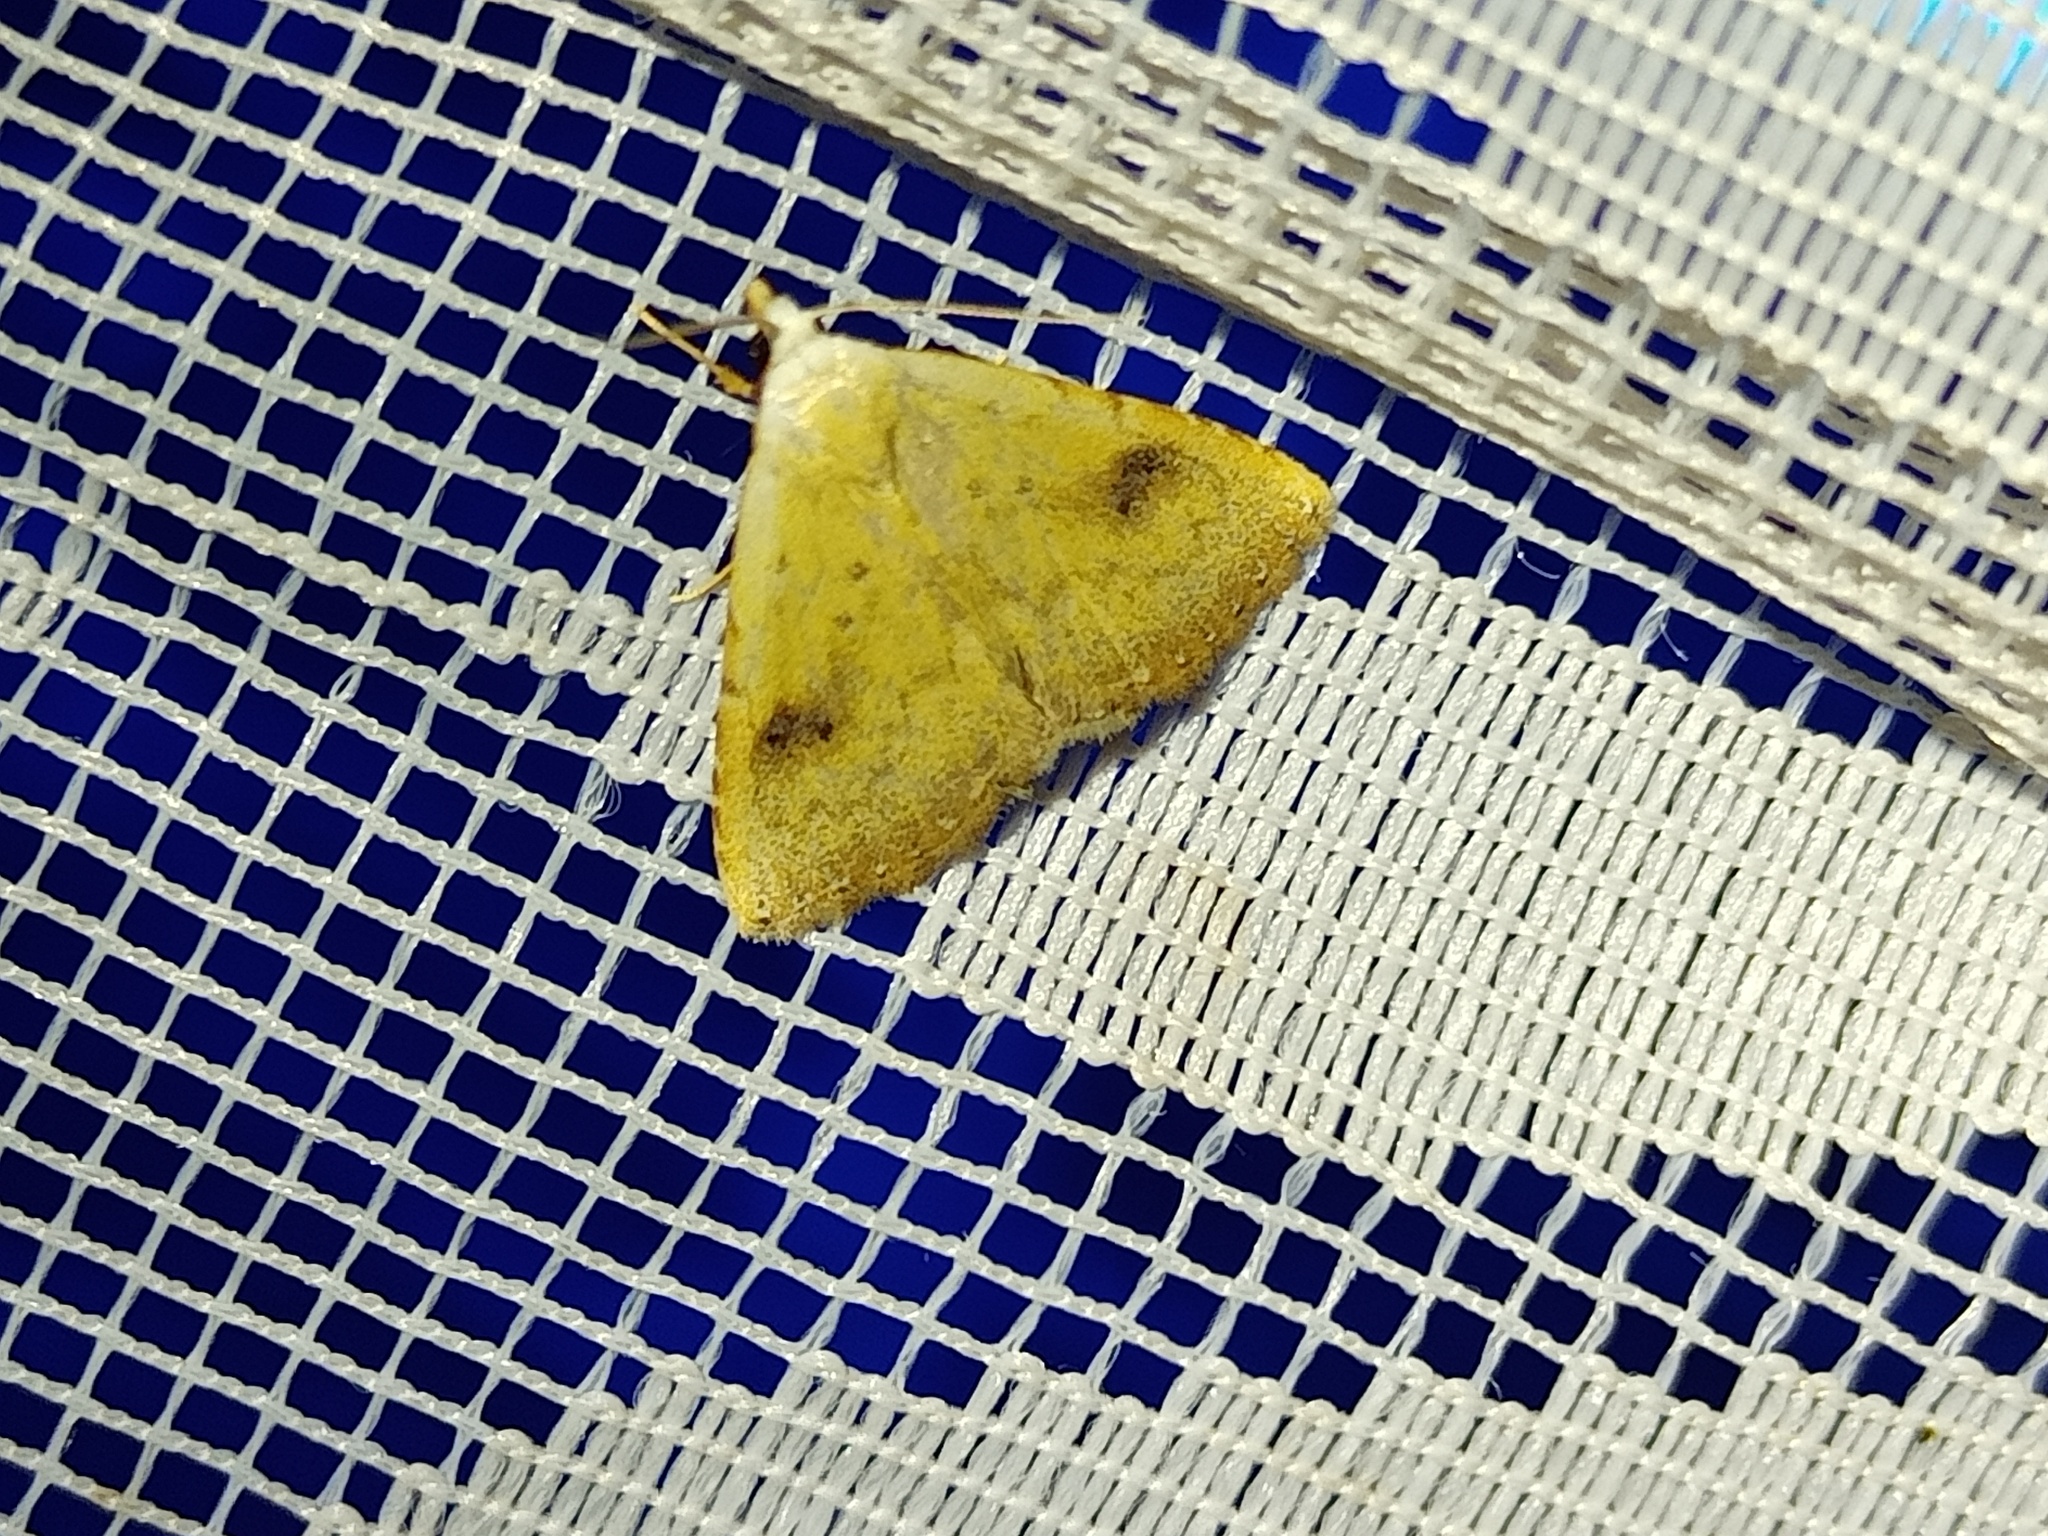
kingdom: Animalia
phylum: Arthropoda
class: Insecta
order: Lepidoptera
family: Erebidae
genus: Rivula
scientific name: Rivula sericealis
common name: Straw dot
